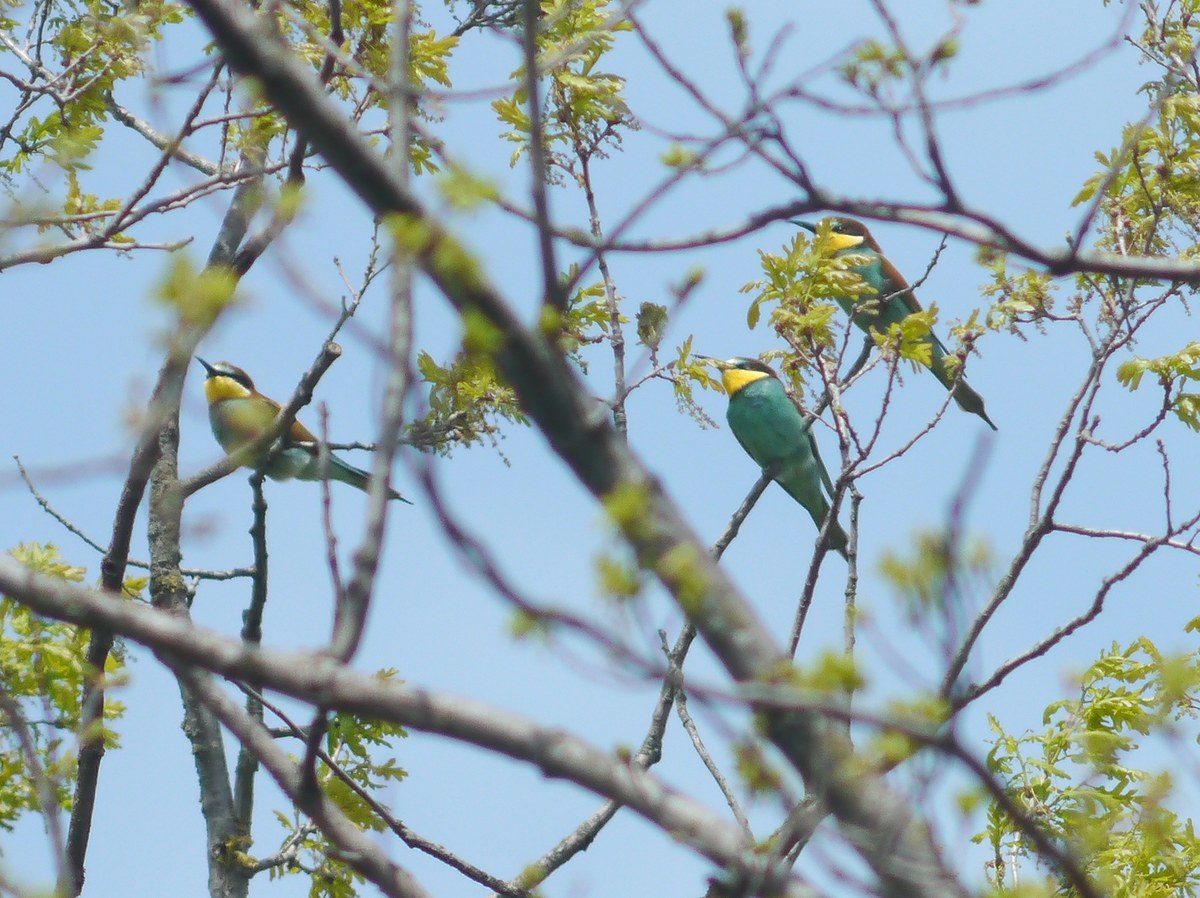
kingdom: Animalia
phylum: Chordata
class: Aves
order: Coraciiformes
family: Meropidae
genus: Merops
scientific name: Merops apiaster
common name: European bee-eater
